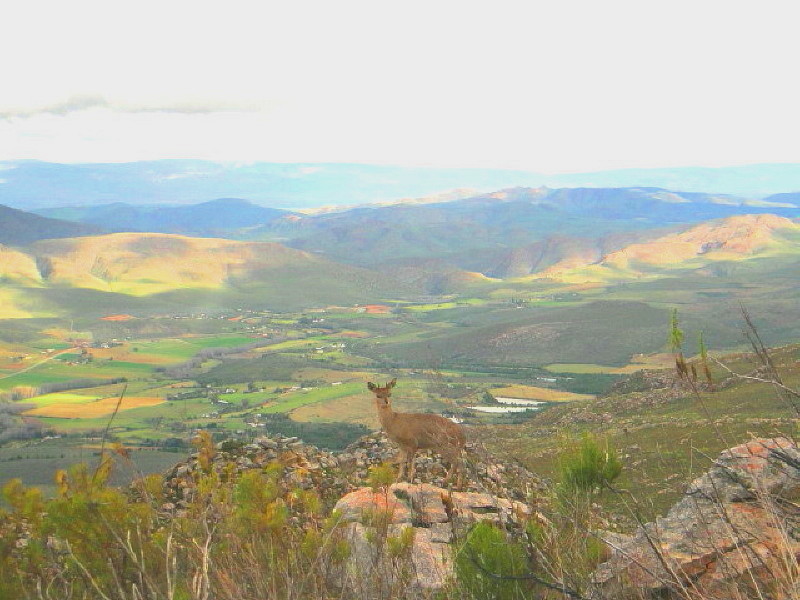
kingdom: Animalia
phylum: Chordata
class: Mammalia
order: Artiodactyla
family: Bovidae
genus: Oreotragus
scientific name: Oreotragus oreotragus
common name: Klipspringer
